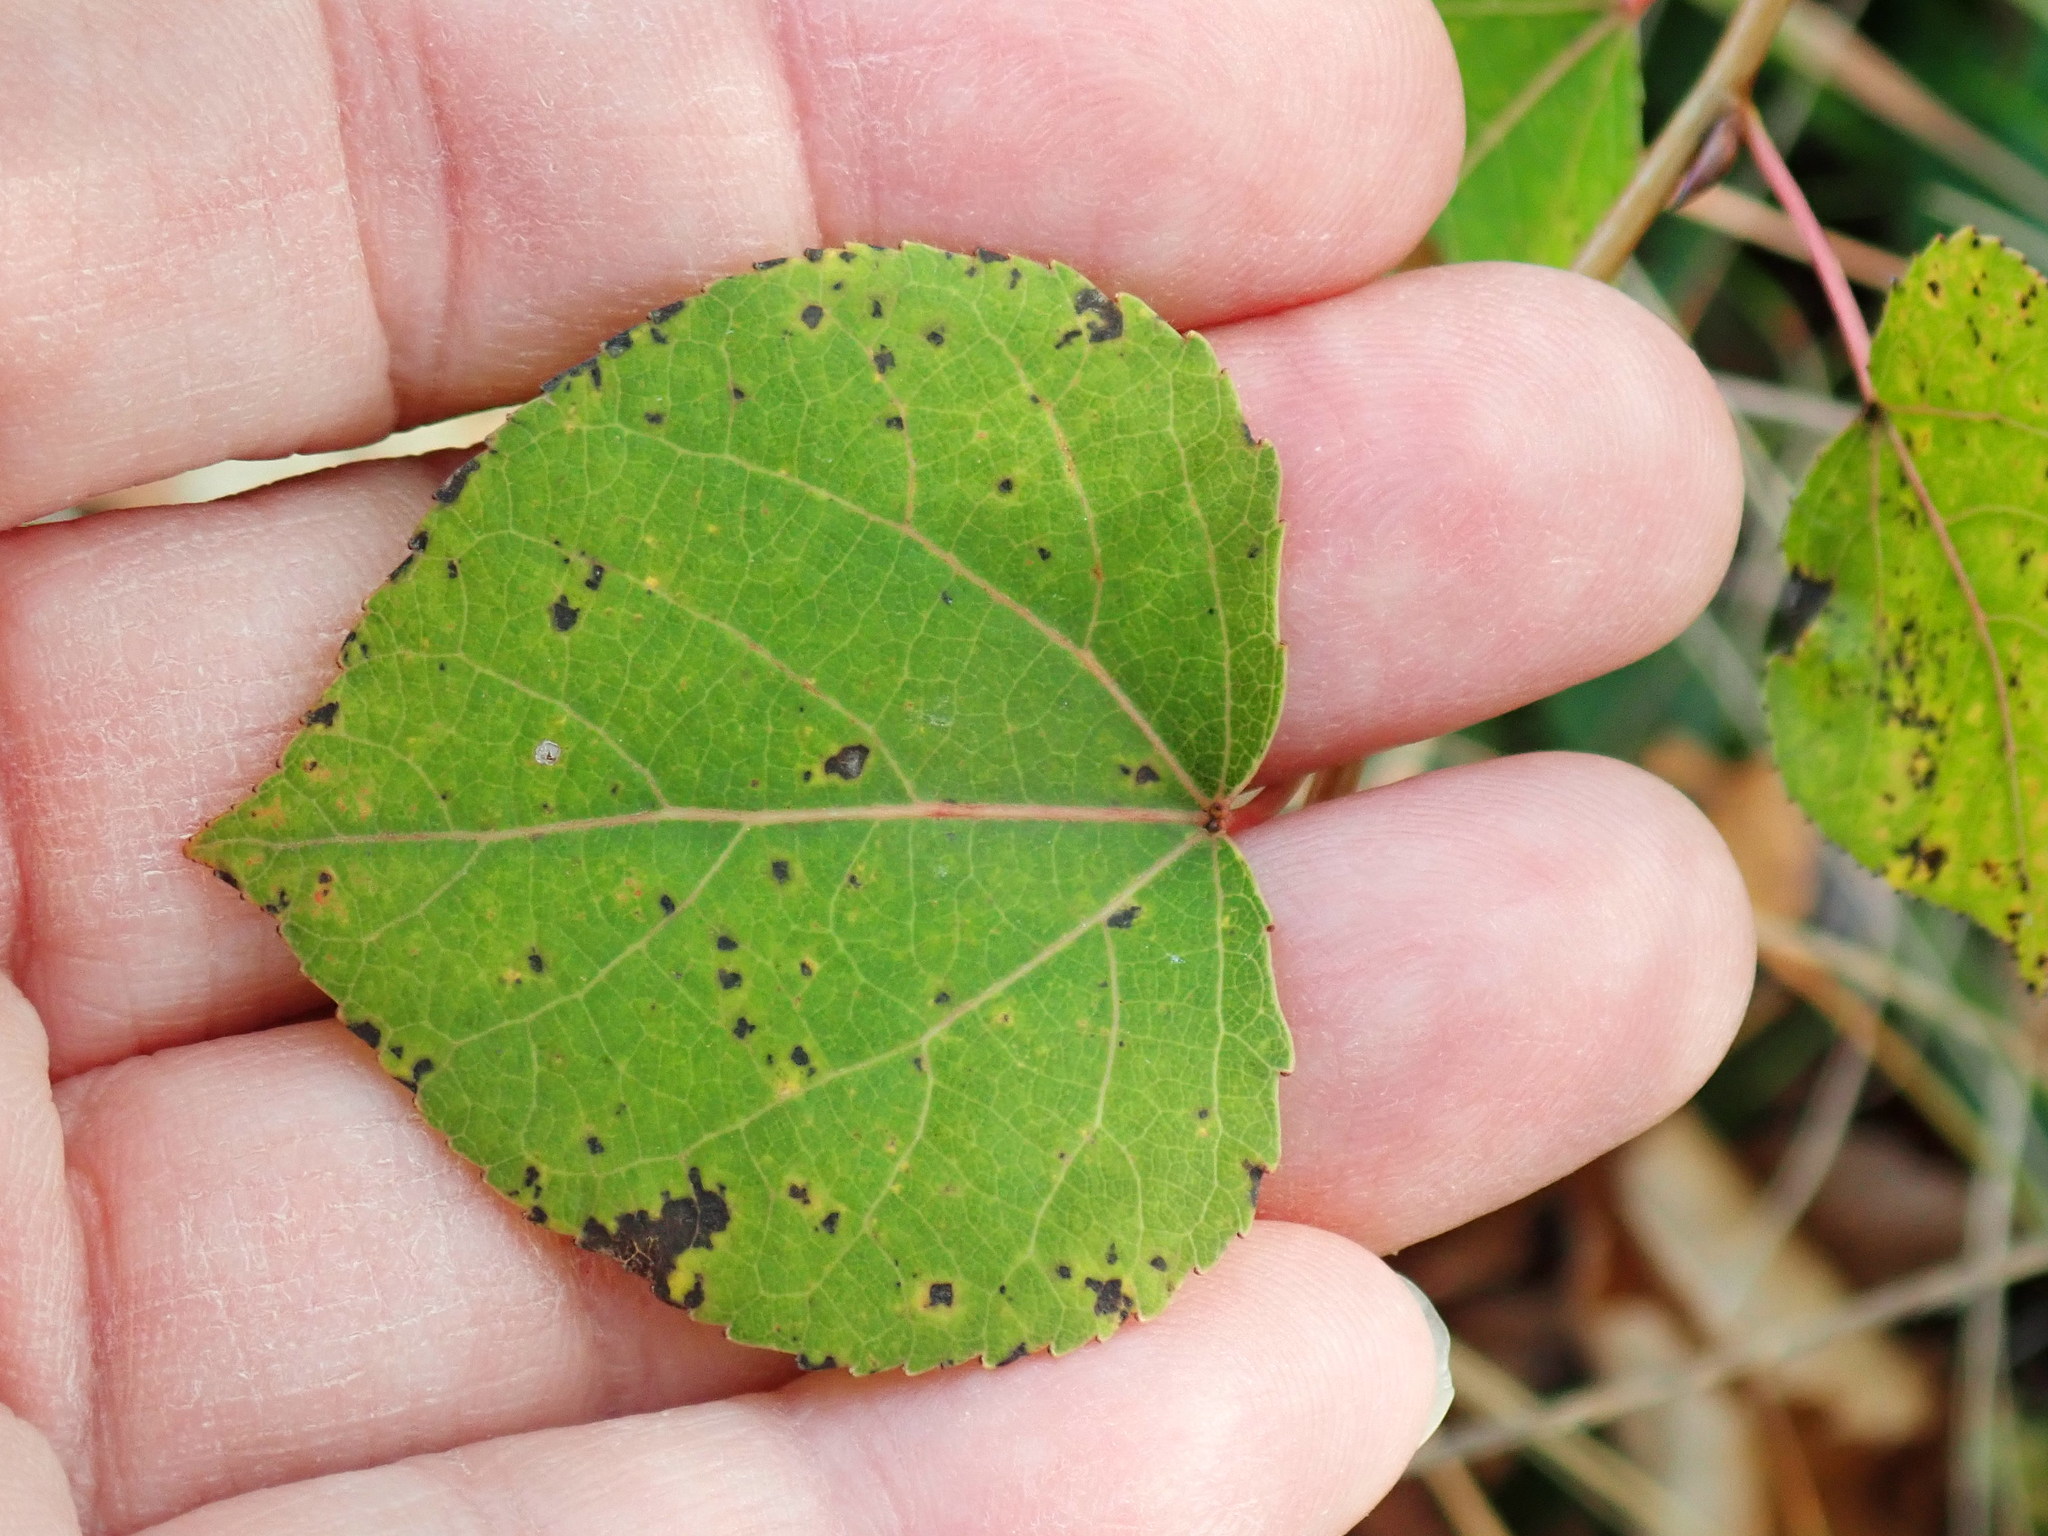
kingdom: Plantae
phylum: Tracheophyta
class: Magnoliopsida
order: Malpighiales
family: Salicaceae
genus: Populus
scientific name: Populus tremuloides
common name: Quaking aspen
